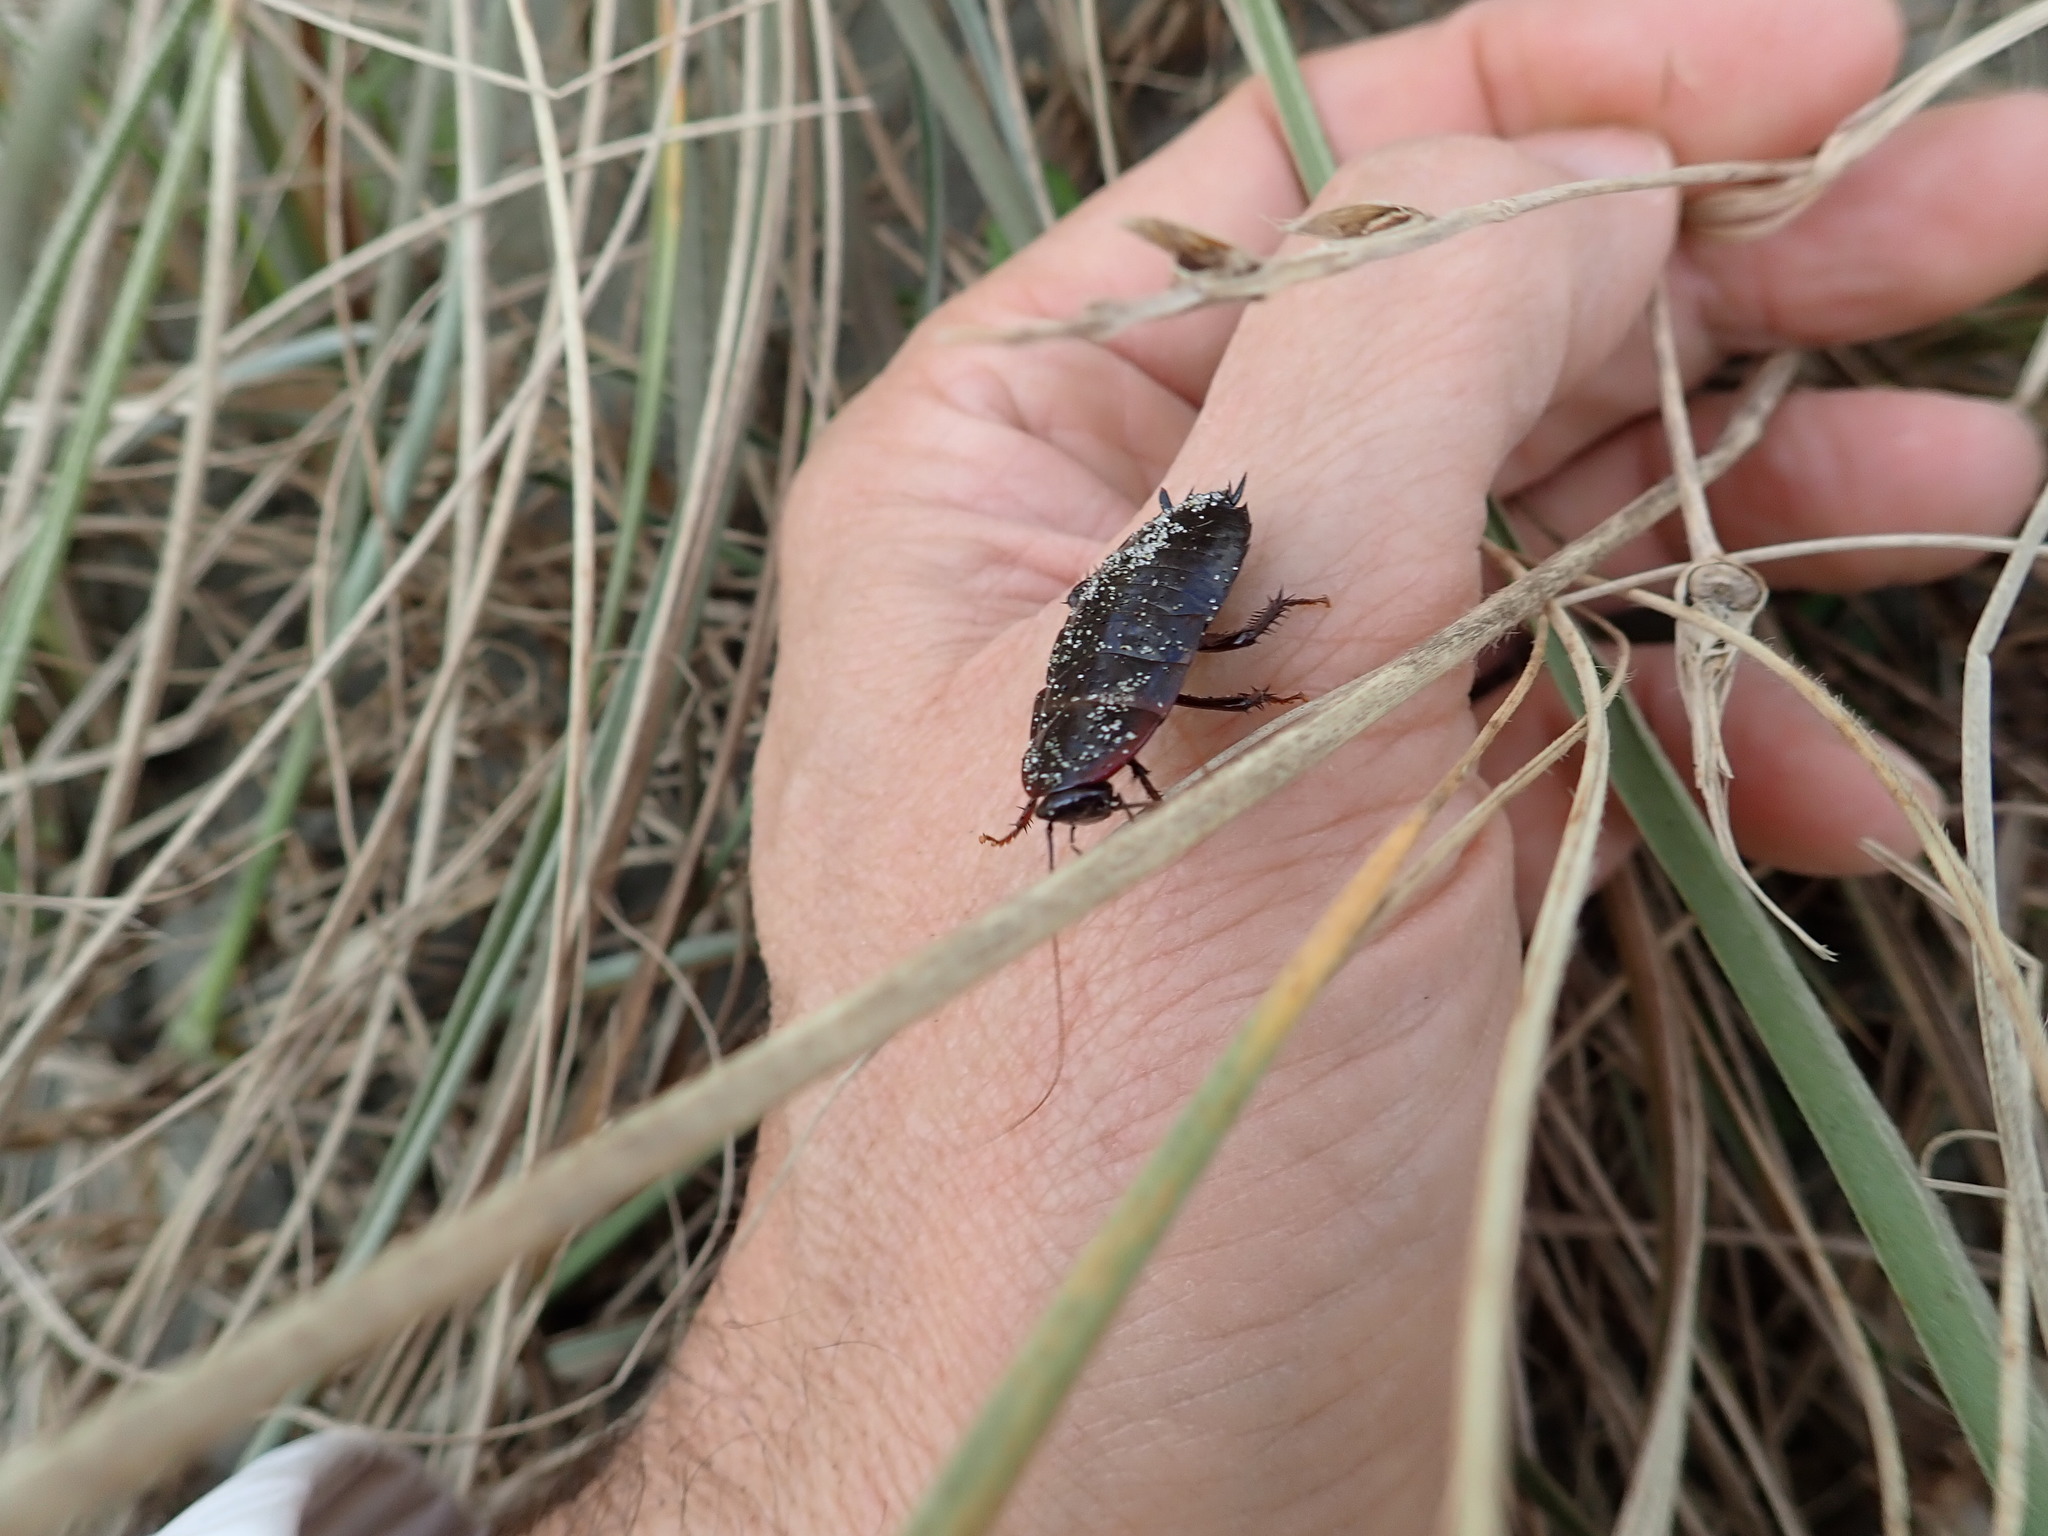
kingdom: Animalia
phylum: Arthropoda
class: Insecta
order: Blattodea
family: Blattidae
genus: Maoriblatta
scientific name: Maoriblatta novaeseelandiae
